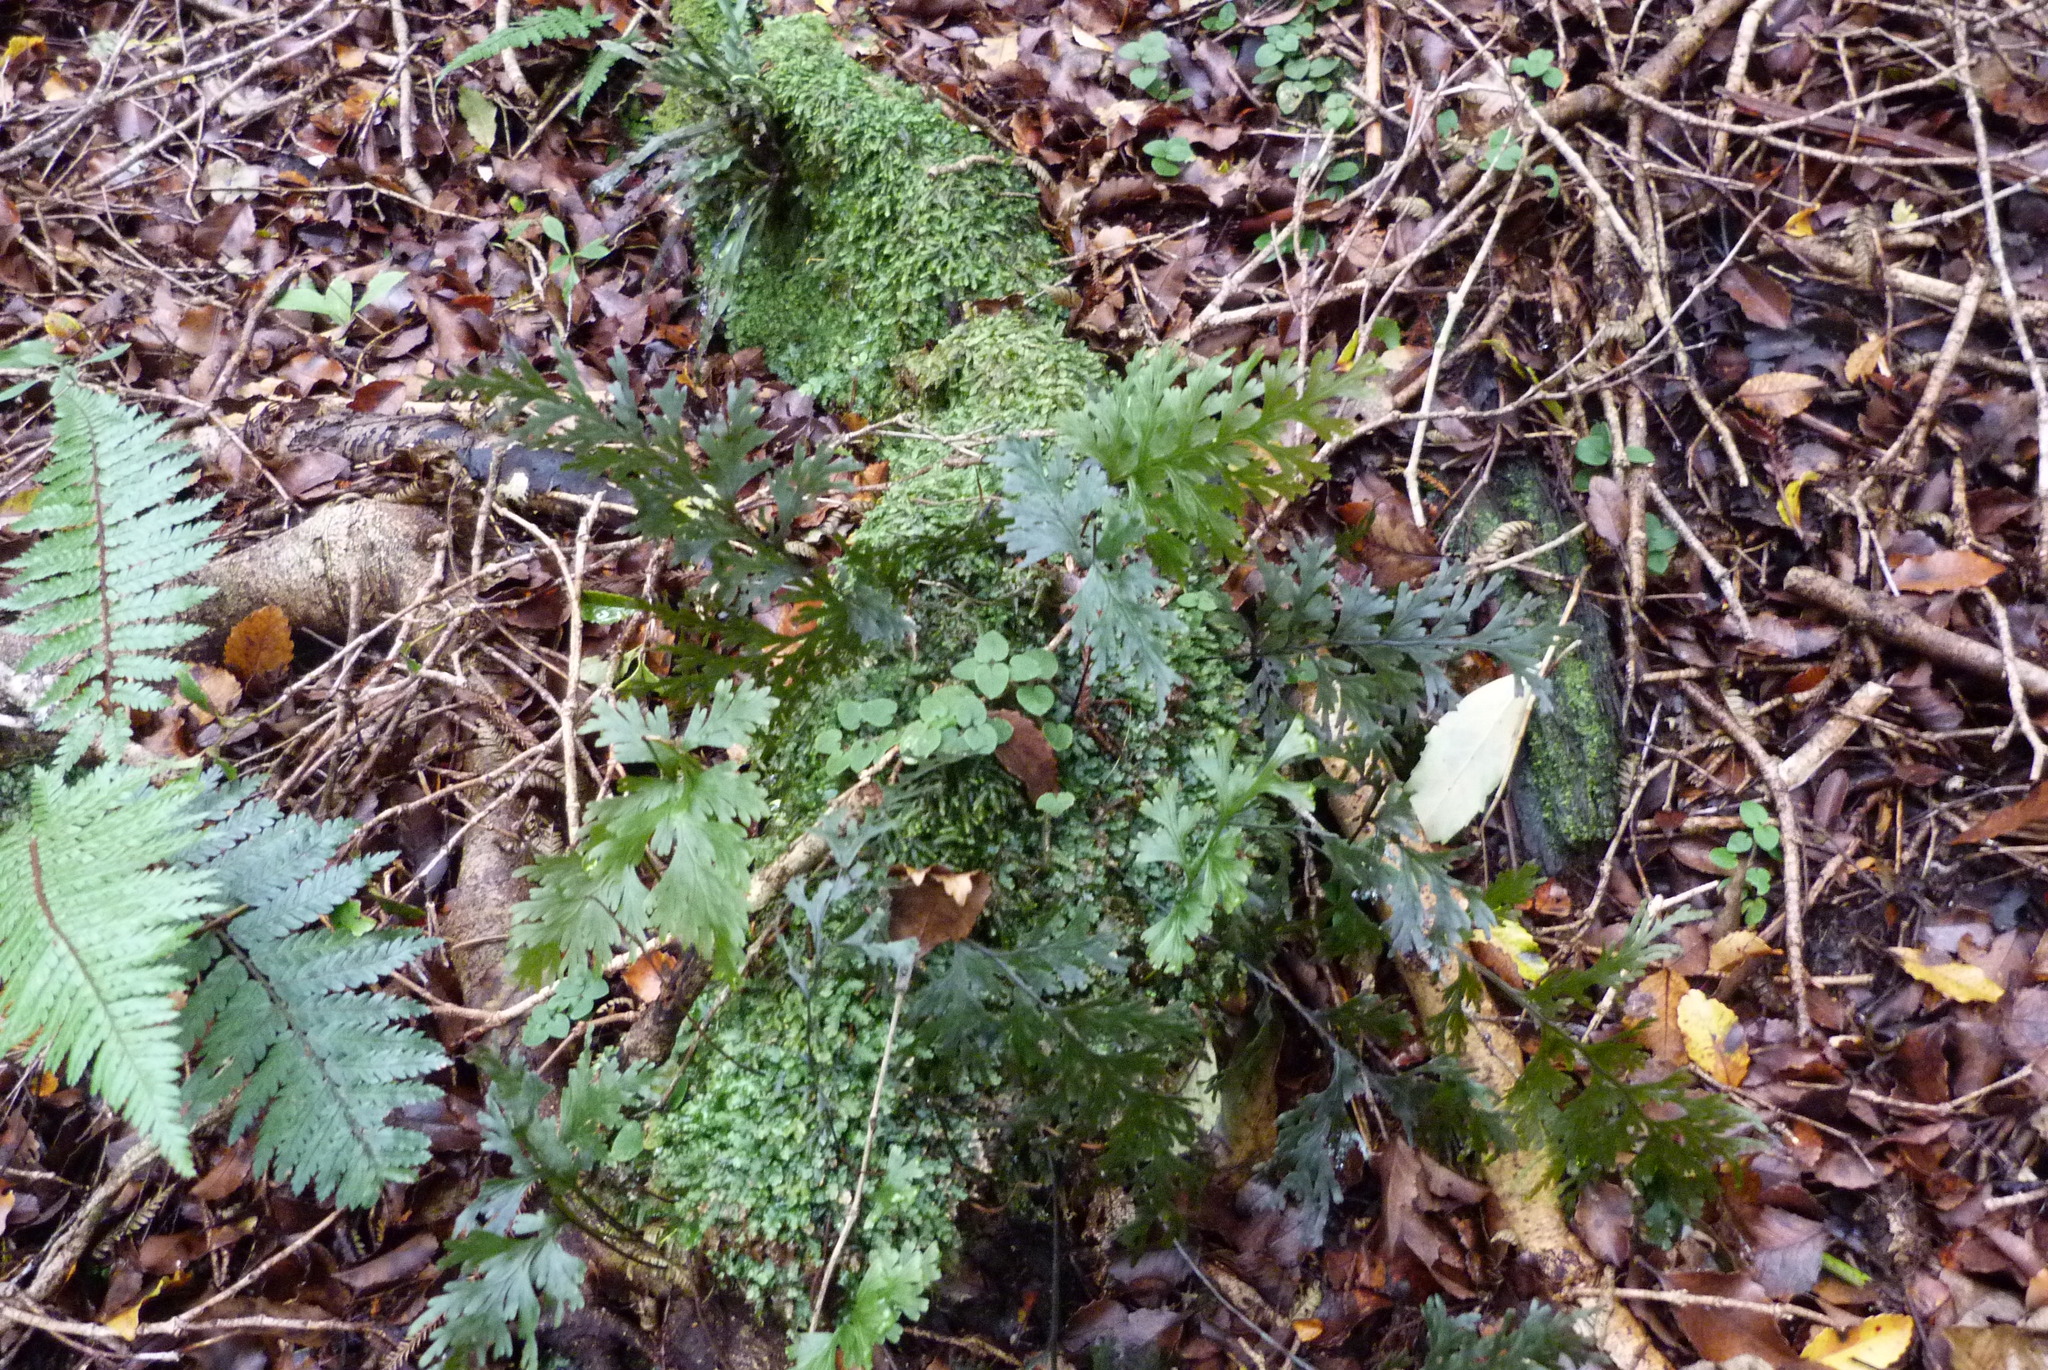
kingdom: Plantae
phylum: Tracheophyta
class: Polypodiopsida
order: Hymenophyllales
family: Hymenophyllaceae
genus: Hymenophyllum
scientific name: Hymenophyllum dilatatum
